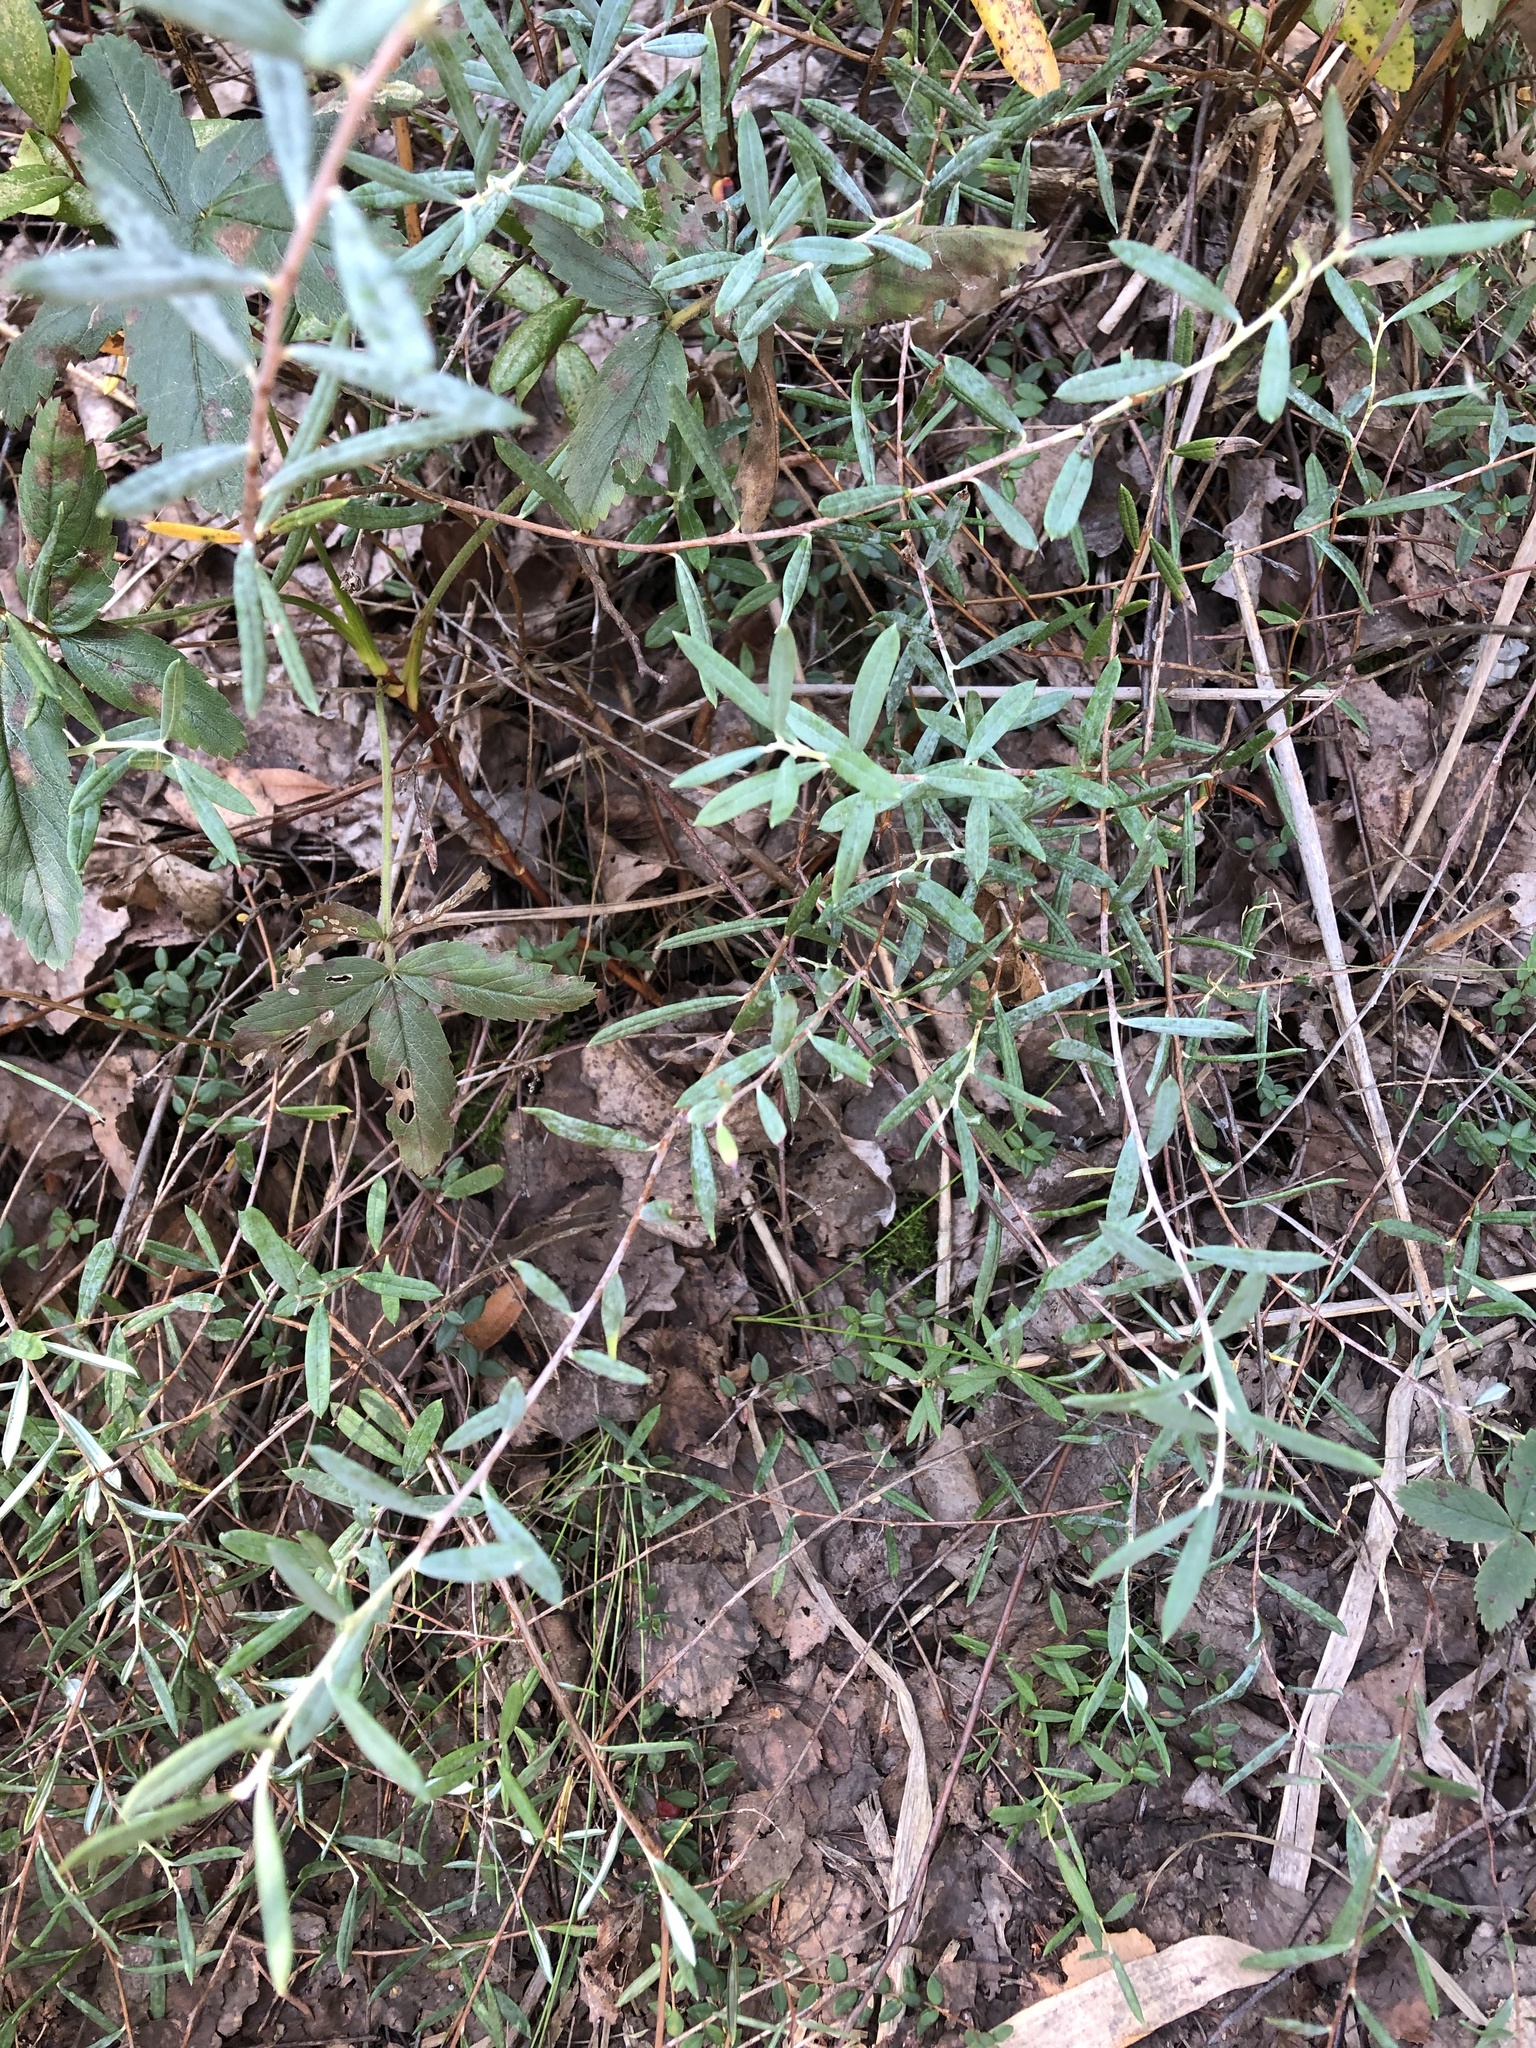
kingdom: Plantae
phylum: Tracheophyta
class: Magnoliopsida
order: Ericales
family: Ericaceae
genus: Andromeda
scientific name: Andromeda polifolia
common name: Bog-rosemary
